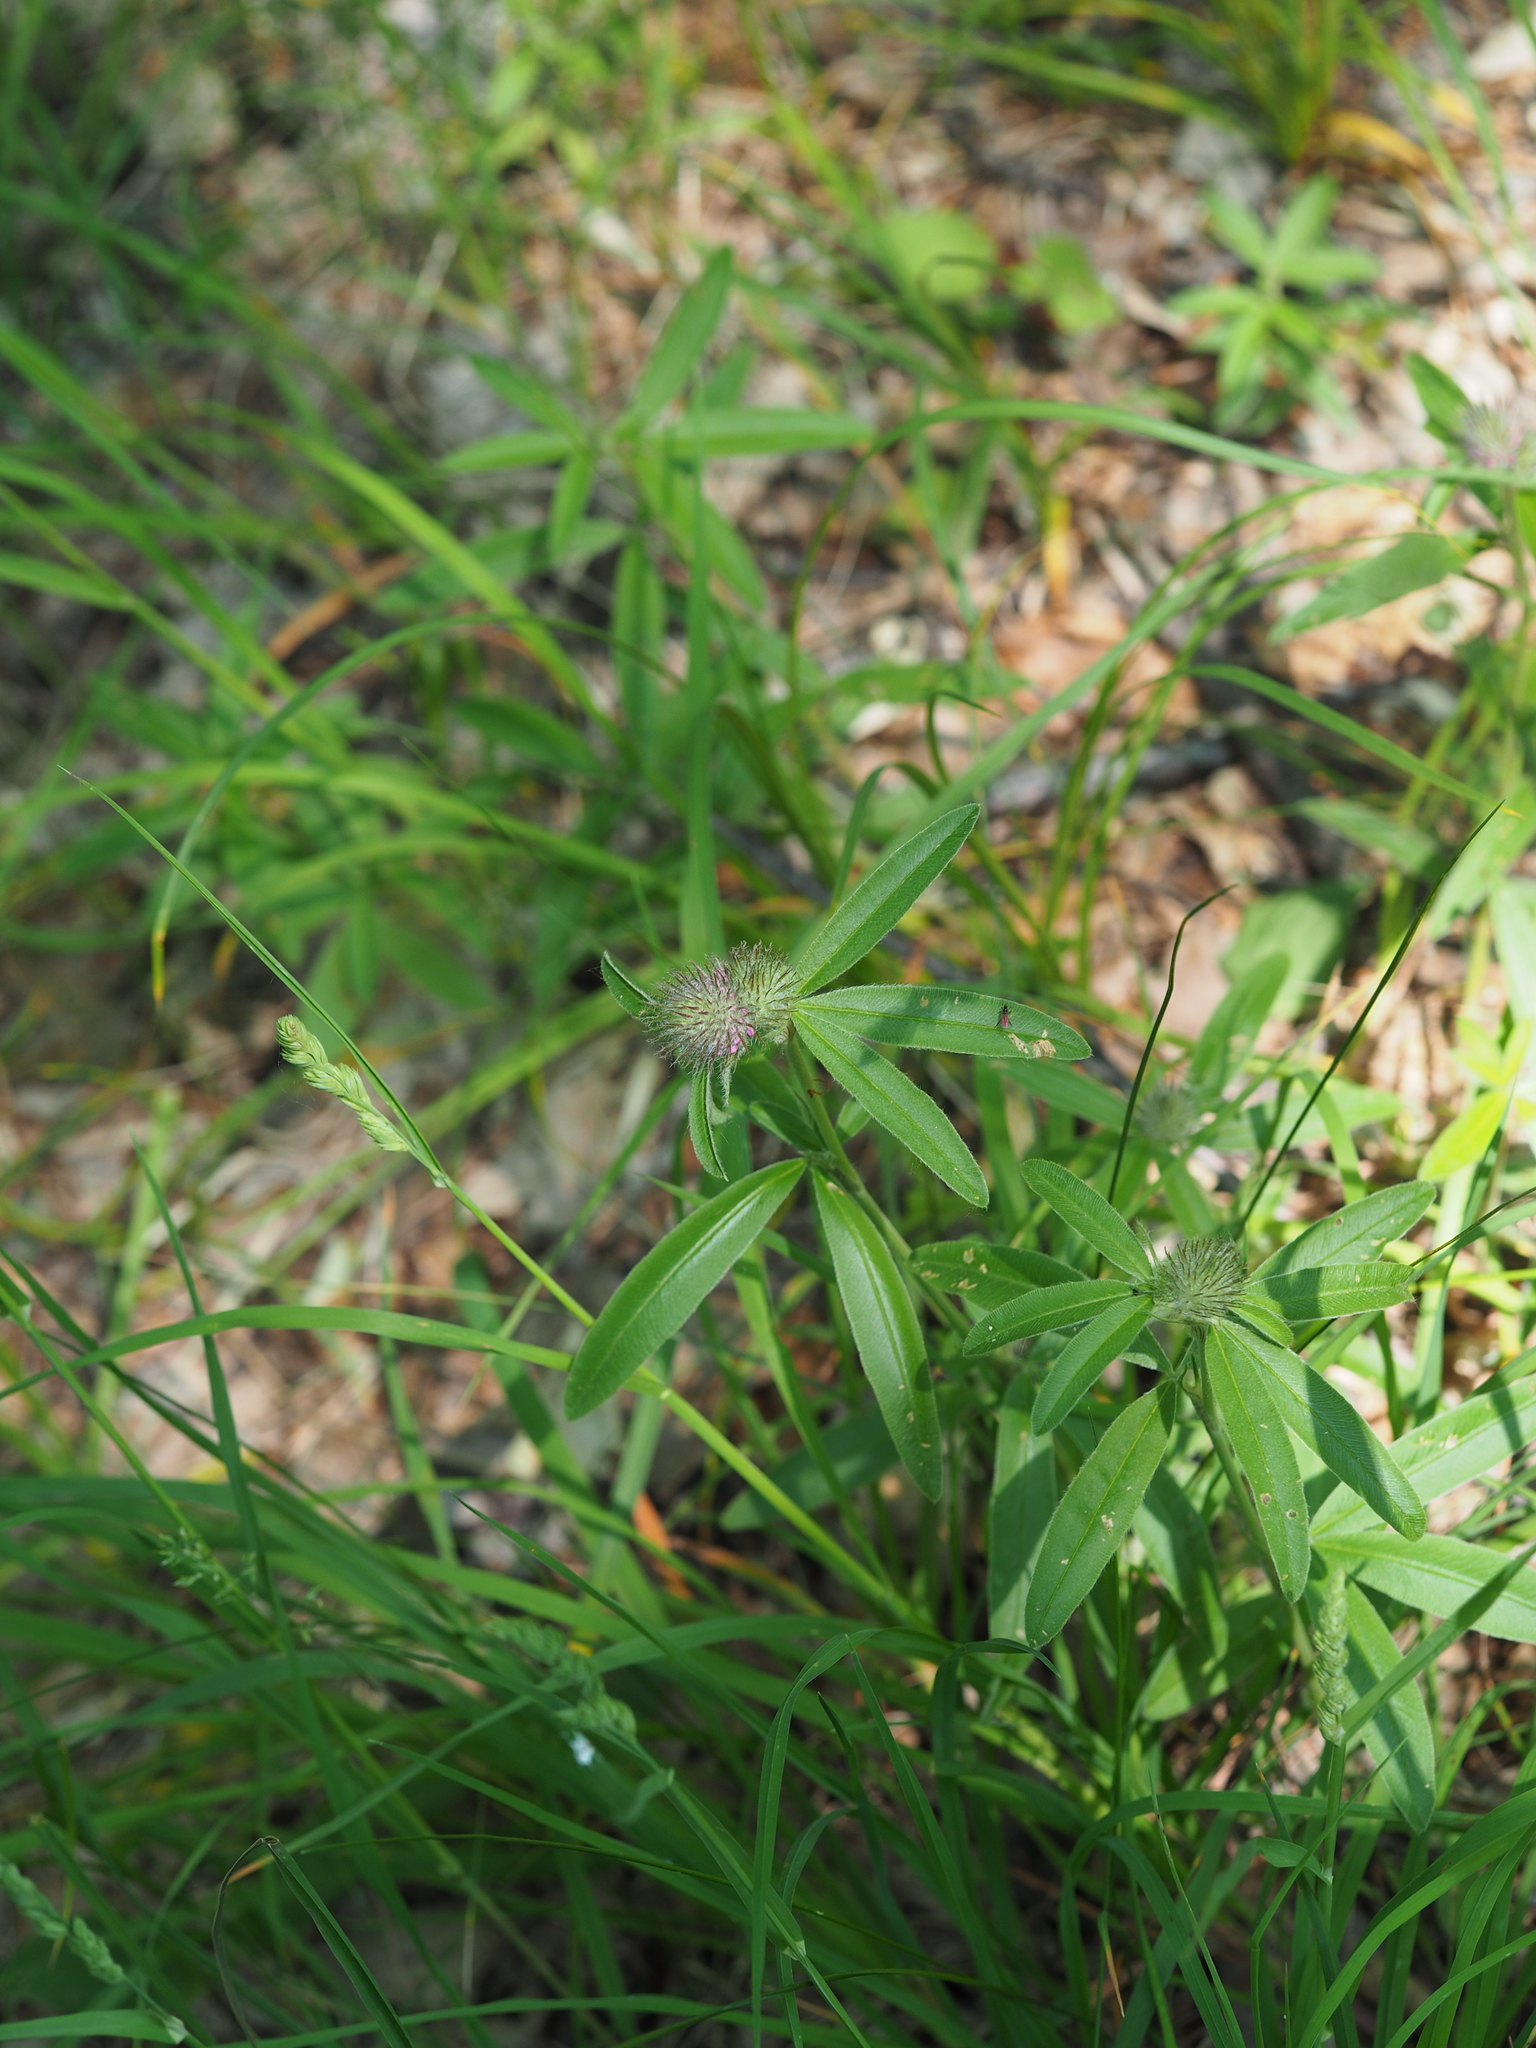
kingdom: Plantae
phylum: Tracheophyta
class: Magnoliopsida
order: Fabales
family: Fabaceae
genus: Trifolium
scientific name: Trifolium alpestre
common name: Owl-head clover
